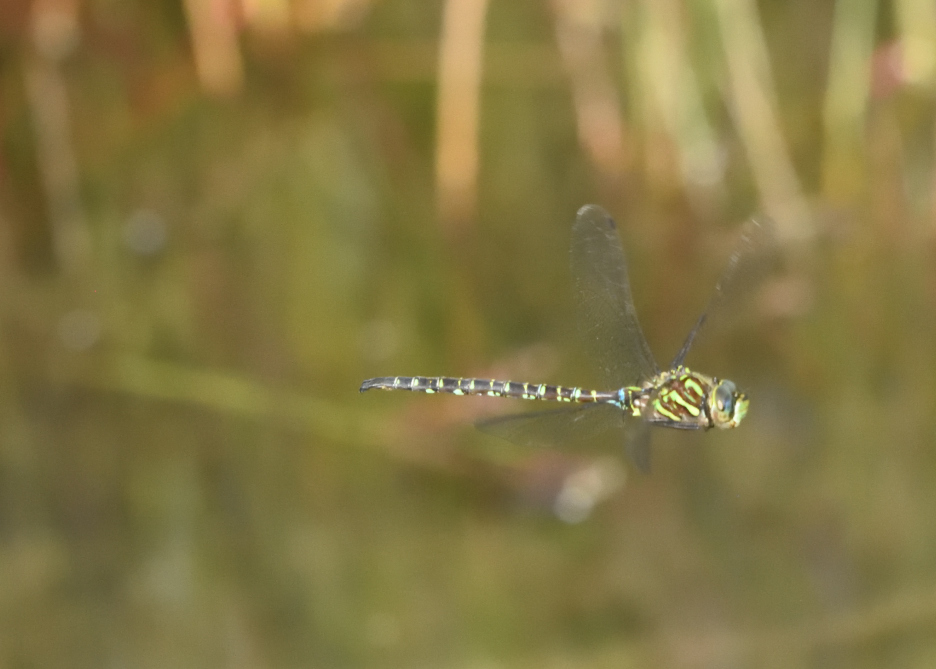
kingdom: Animalia
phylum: Arthropoda
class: Insecta
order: Odonata
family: Aeshnidae
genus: Aeshna
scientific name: Aeshna umbrosa
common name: Shadow darner
